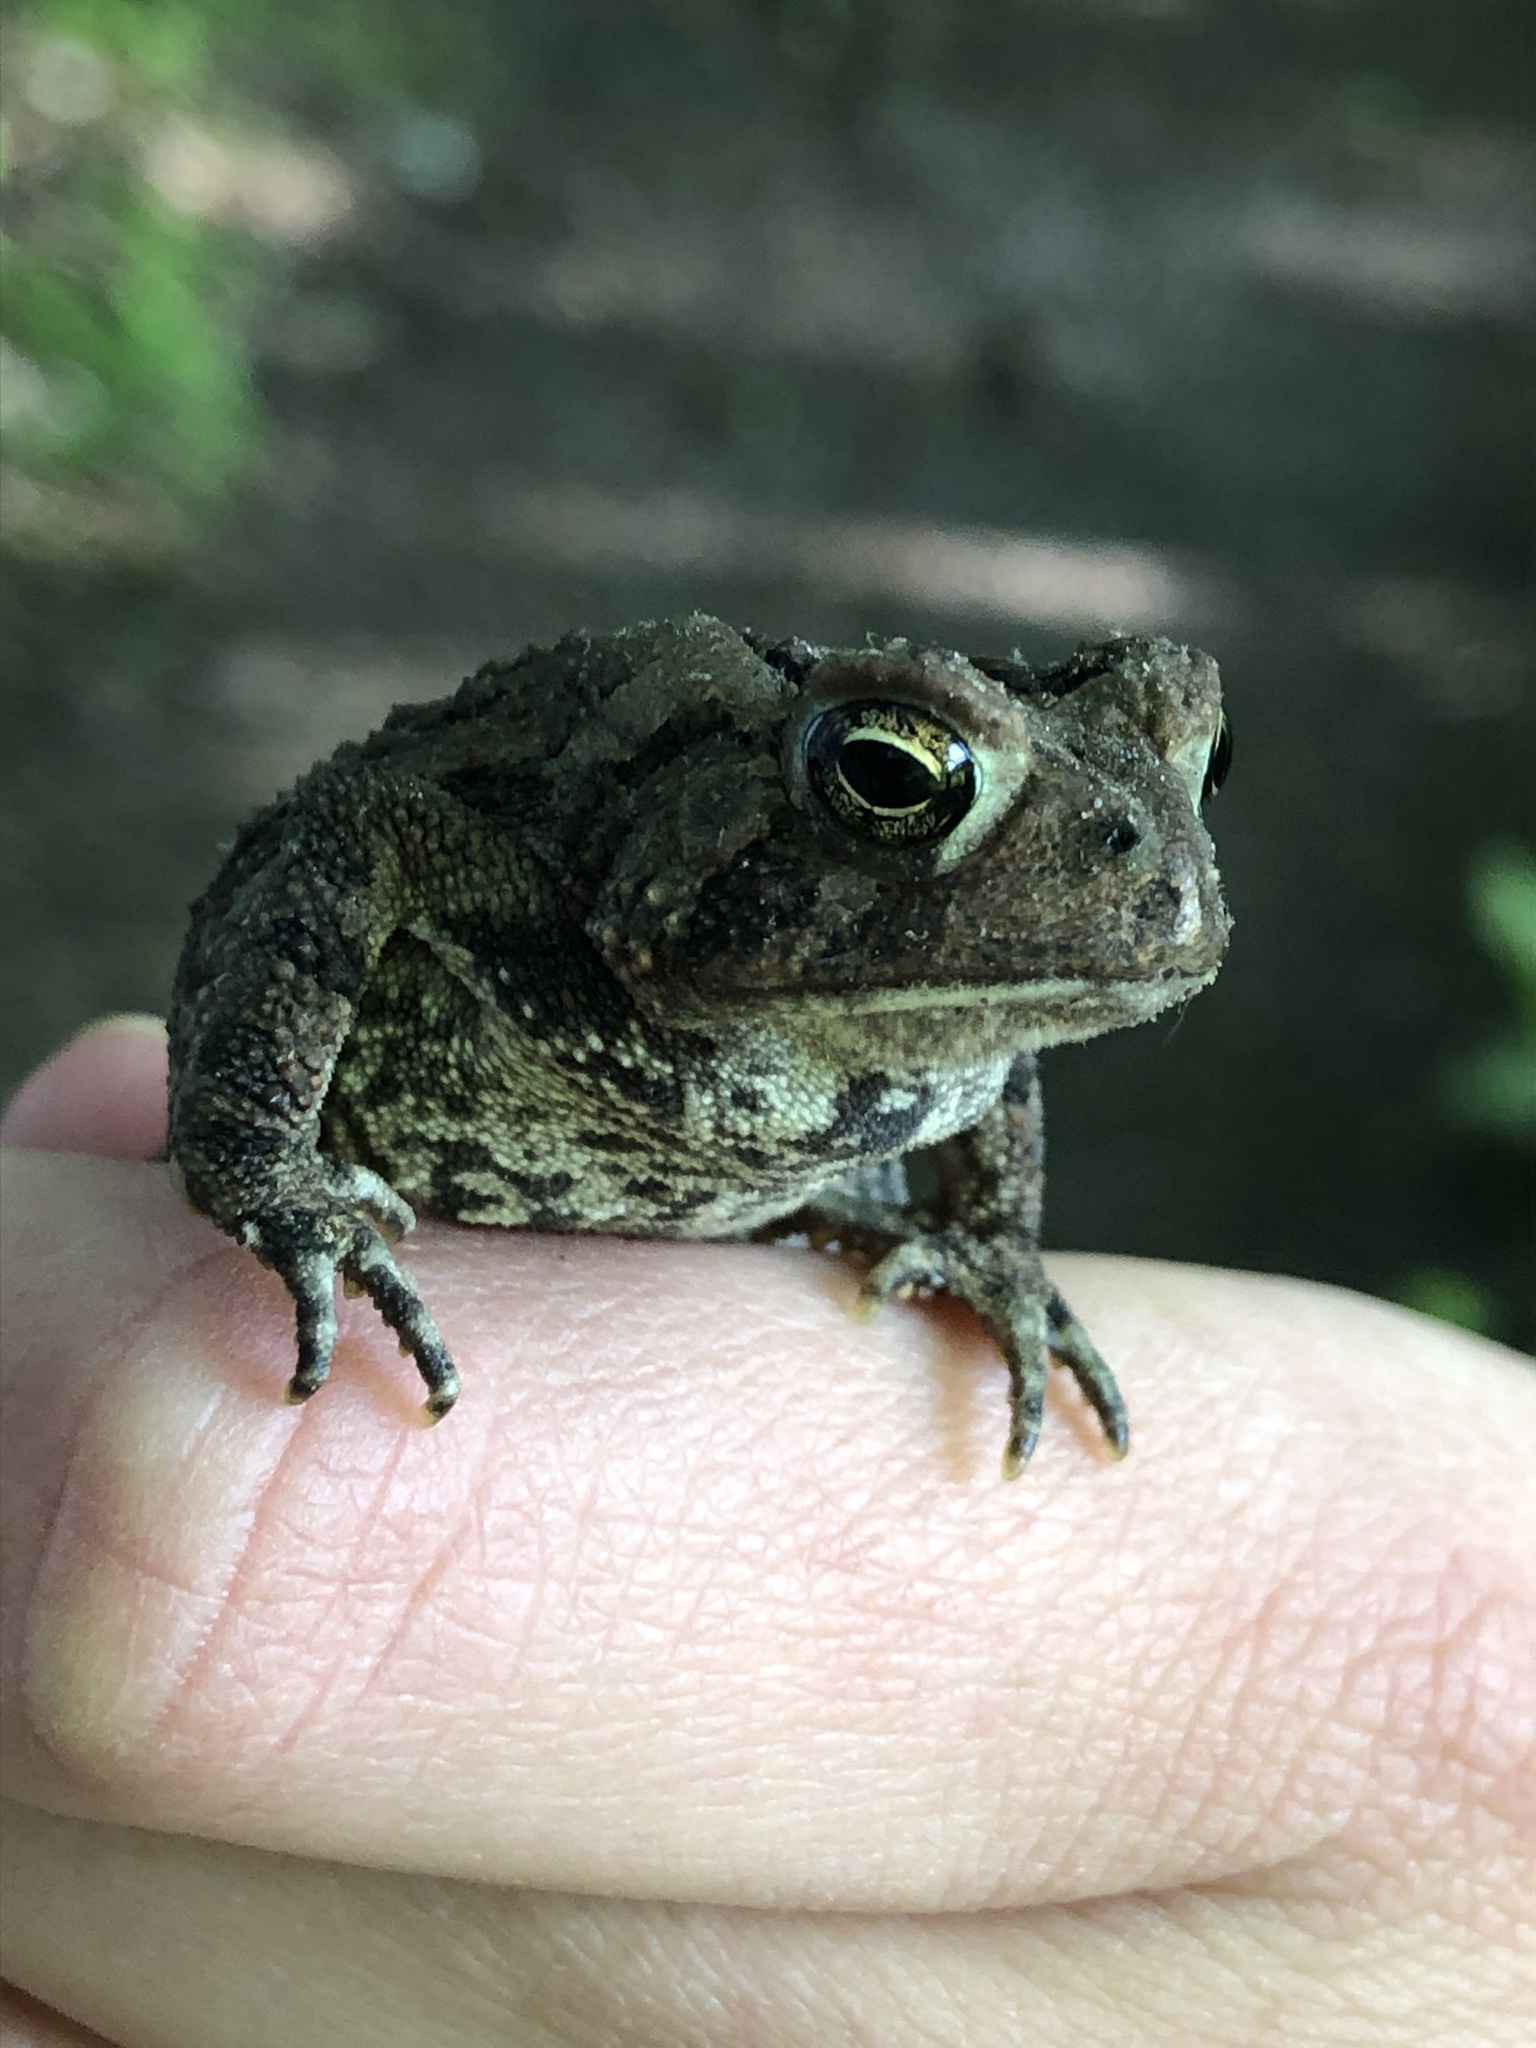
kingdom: Animalia
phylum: Chordata
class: Amphibia
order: Anura
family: Bufonidae
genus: Anaxyrus
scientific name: Anaxyrus americanus
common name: American toad
